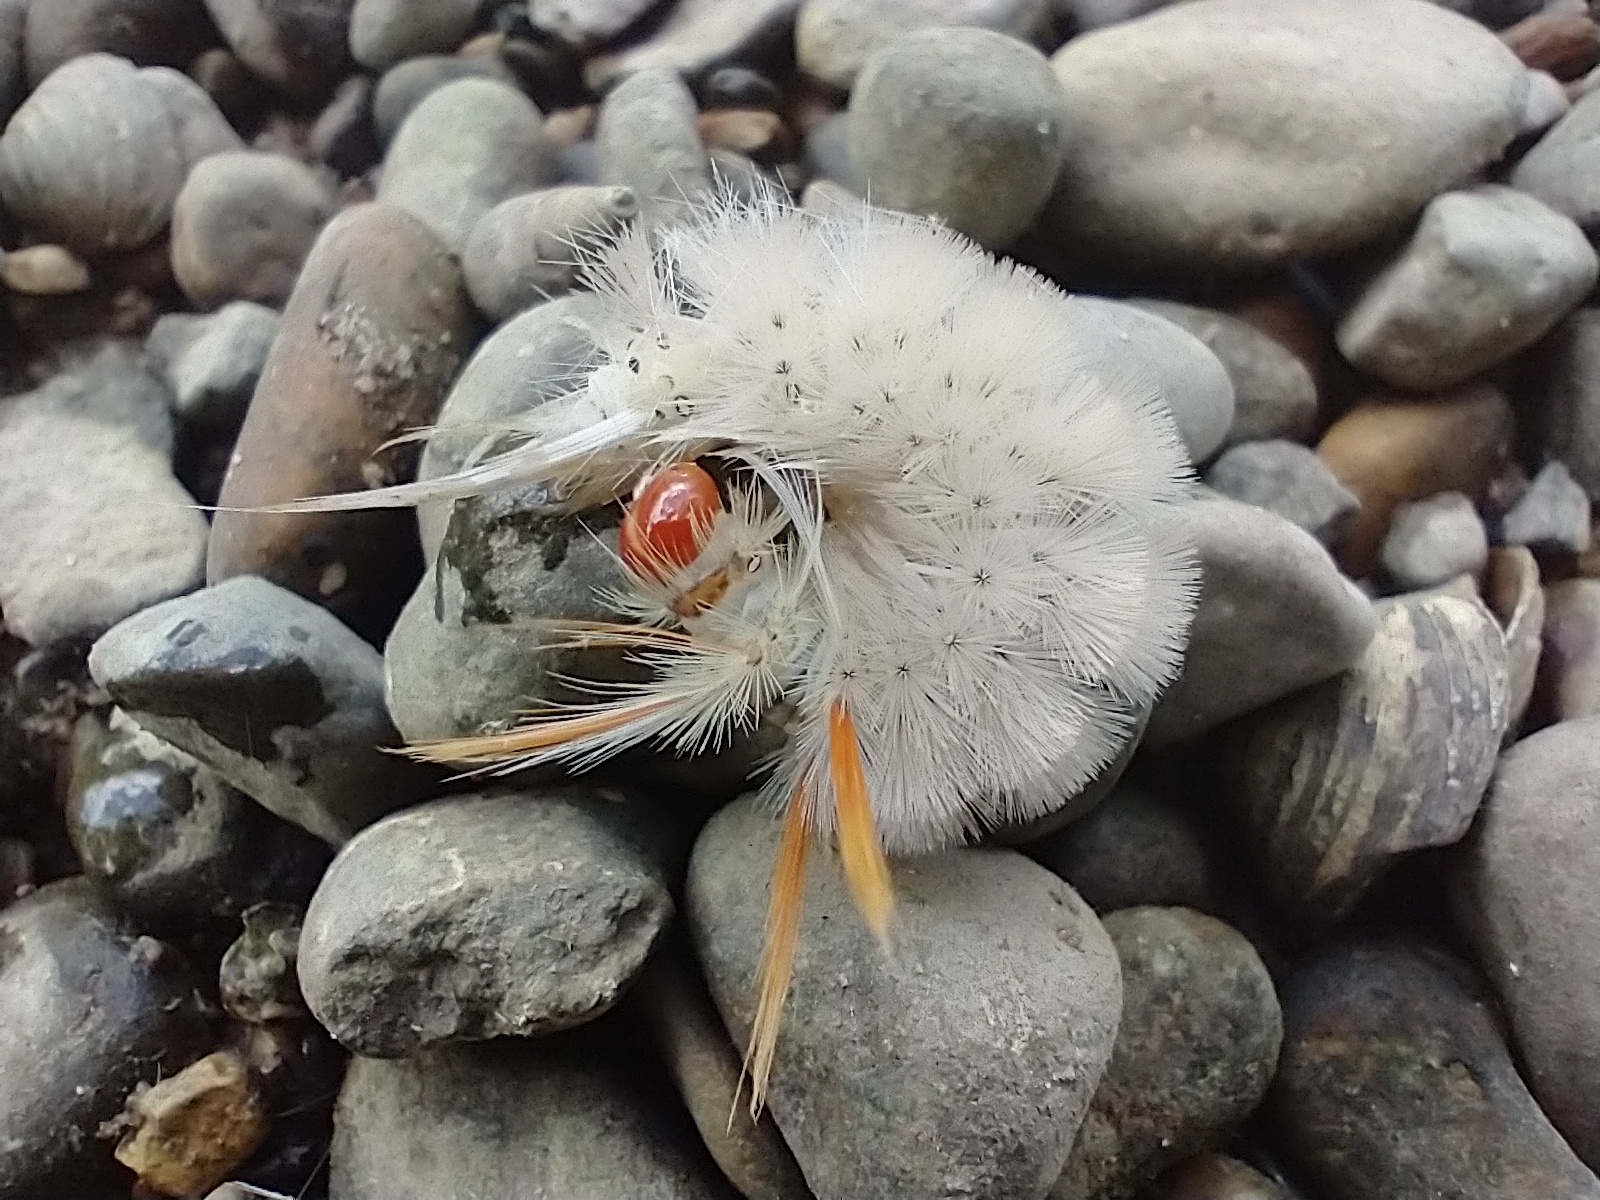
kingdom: Animalia
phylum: Arthropoda
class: Insecta
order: Lepidoptera
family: Erebidae
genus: Halysidota
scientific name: Halysidota harrisii
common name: Sycamore tussock moth
